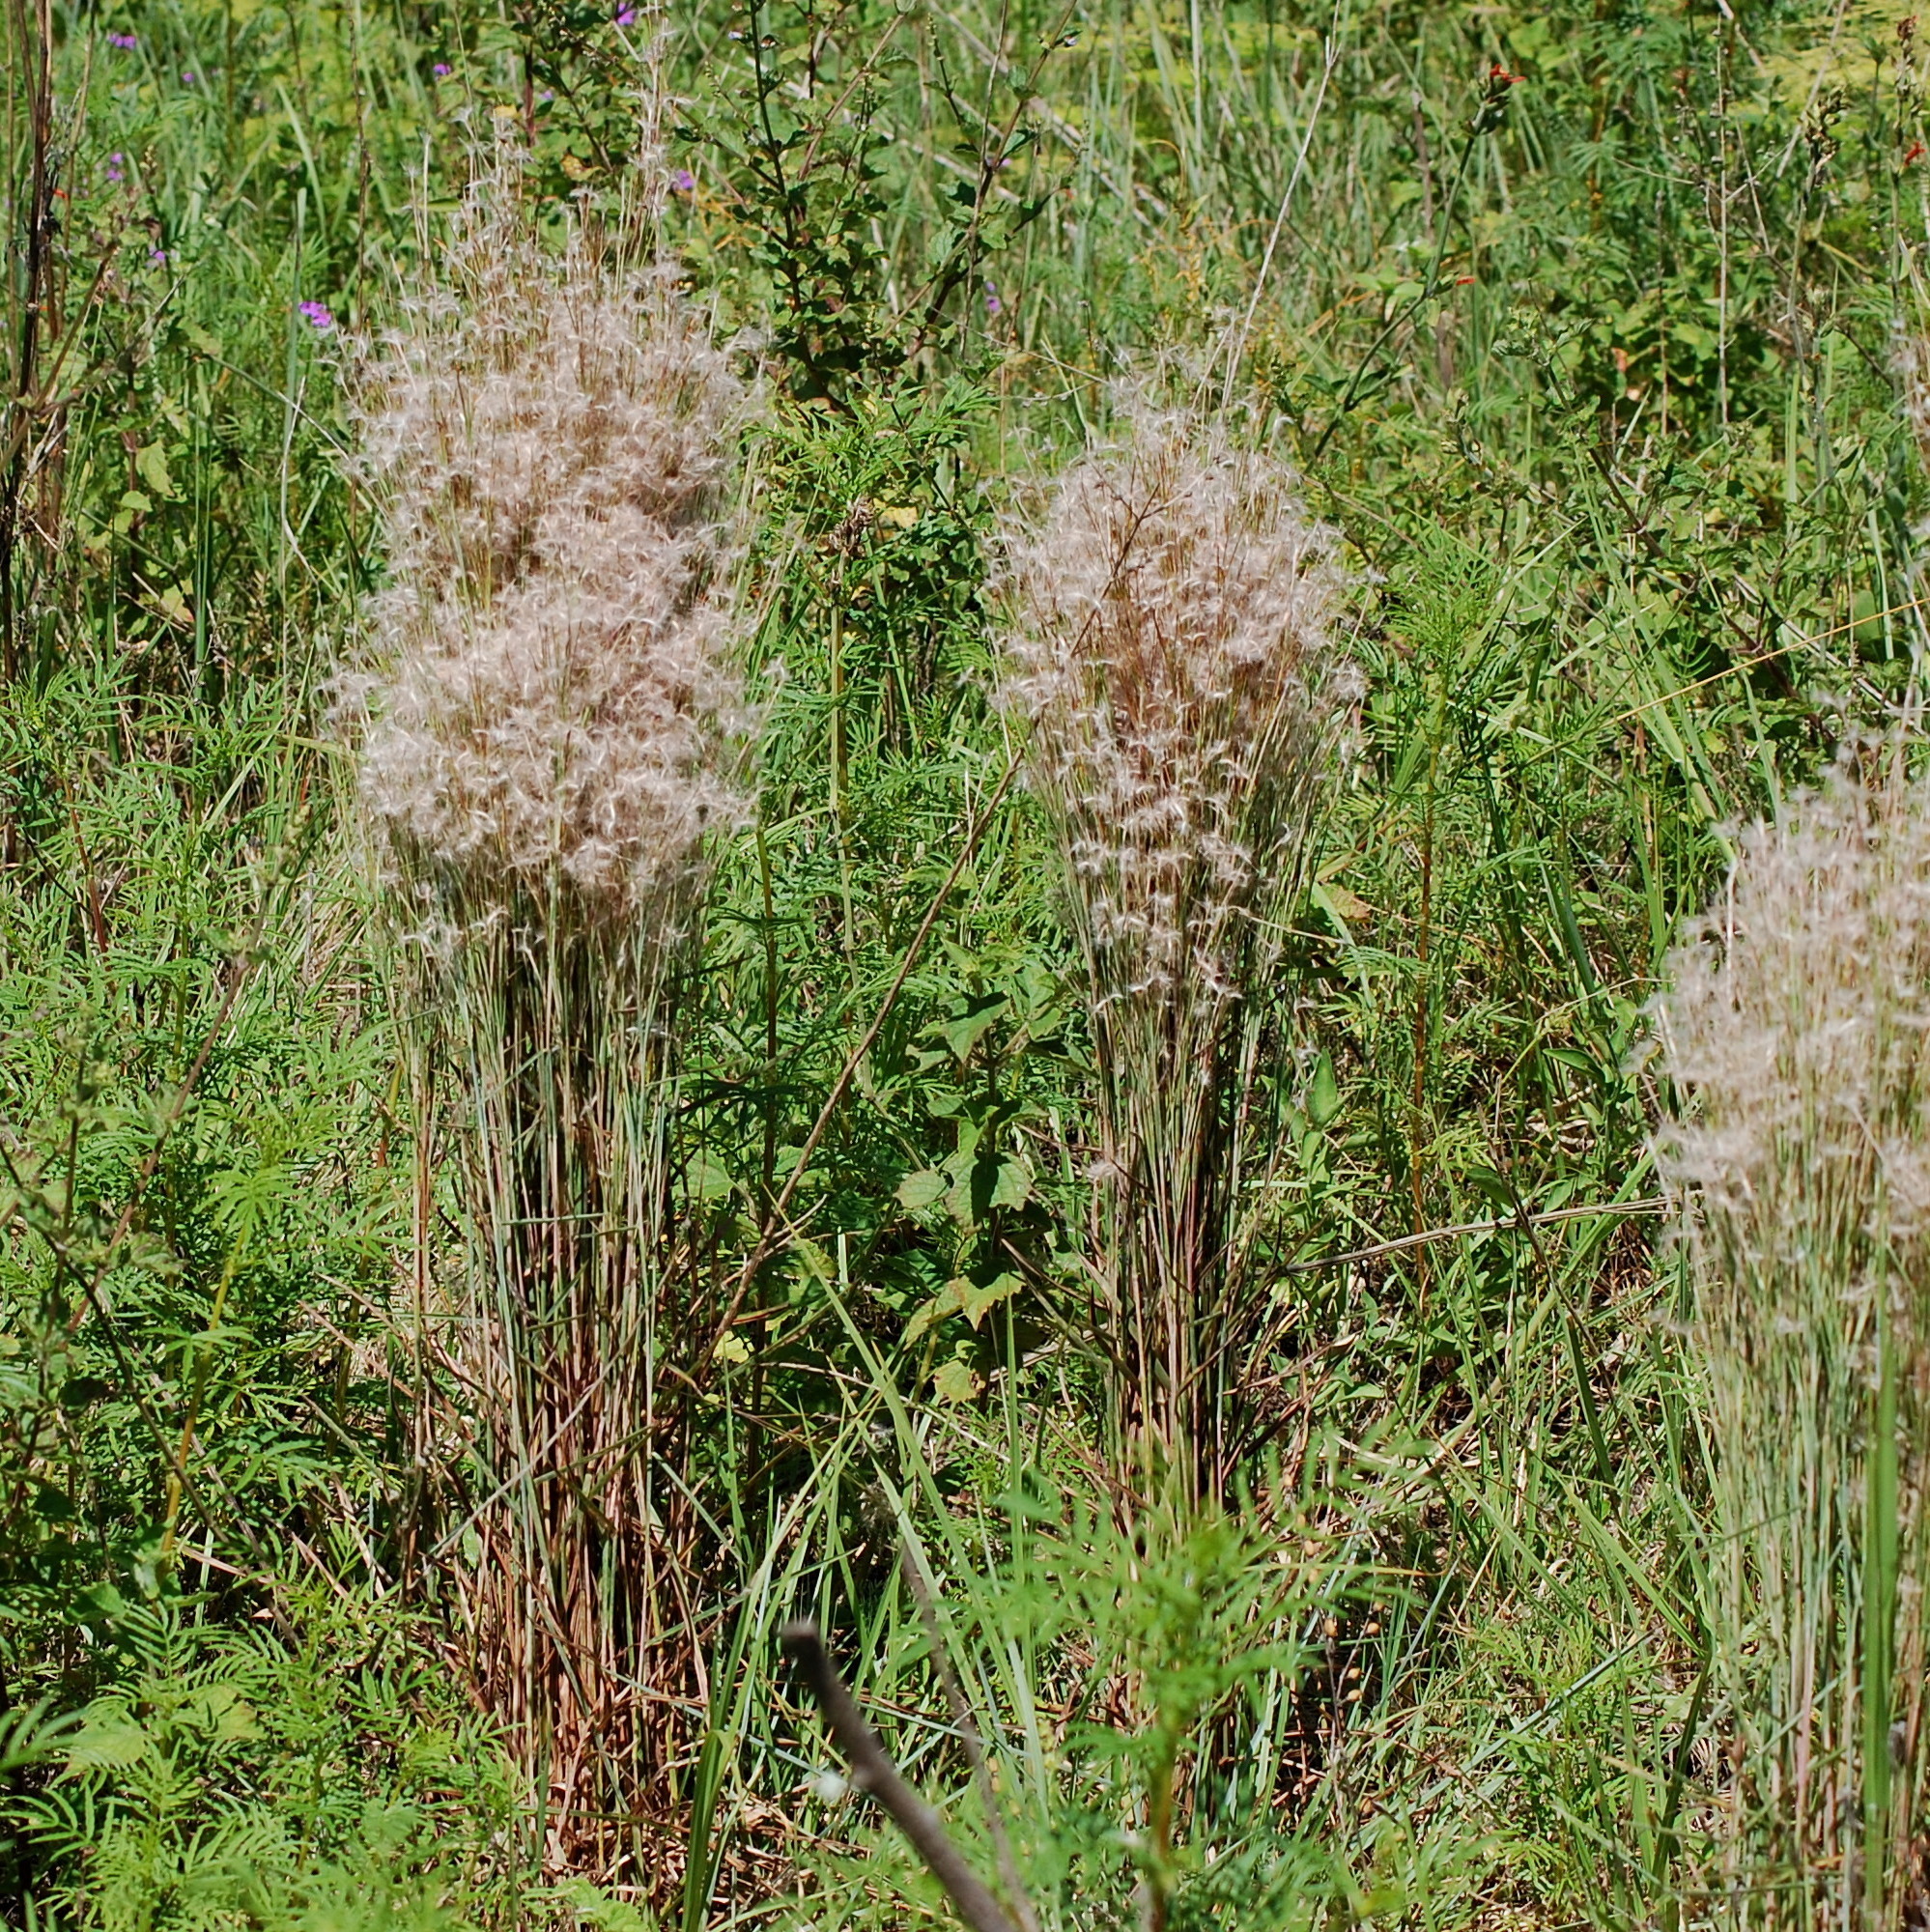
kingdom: Plantae
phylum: Tracheophyta
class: Liliopsida
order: Poales
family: Poaceae
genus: Schizachyrium
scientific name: Schizachyrium microstachyum
